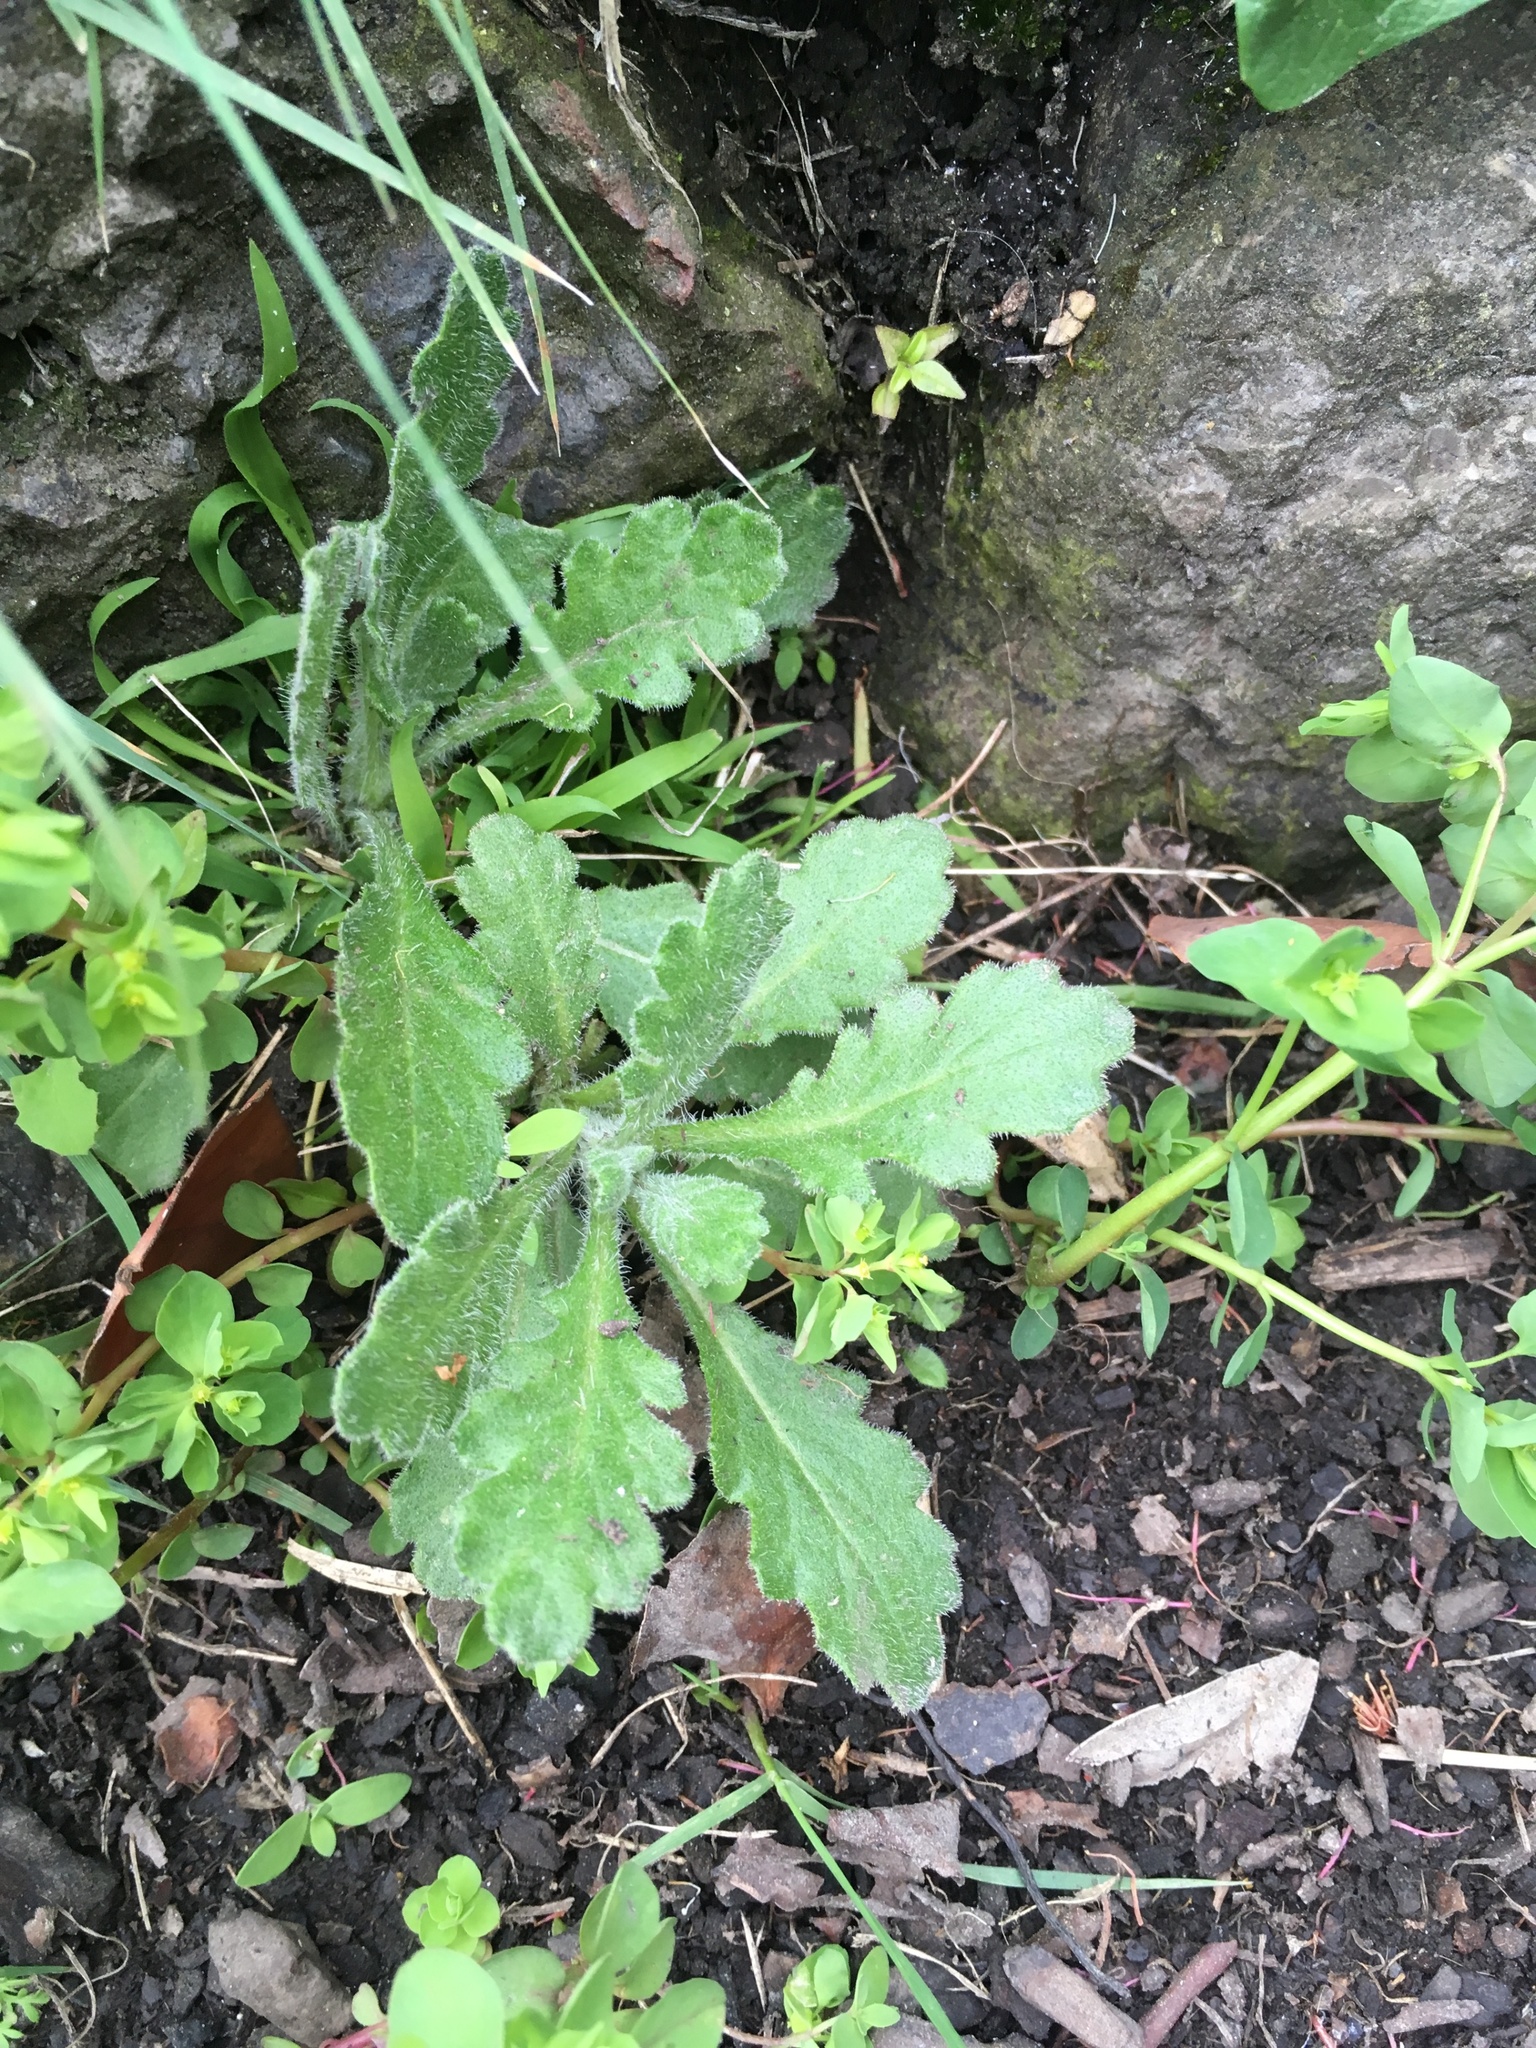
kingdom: Plantae
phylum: Tracheophyta
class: Magnoliopsida
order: Asterales
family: Asteraceae
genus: Senecio
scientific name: Senecio glomeratus
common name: Cutleaf burnweed
